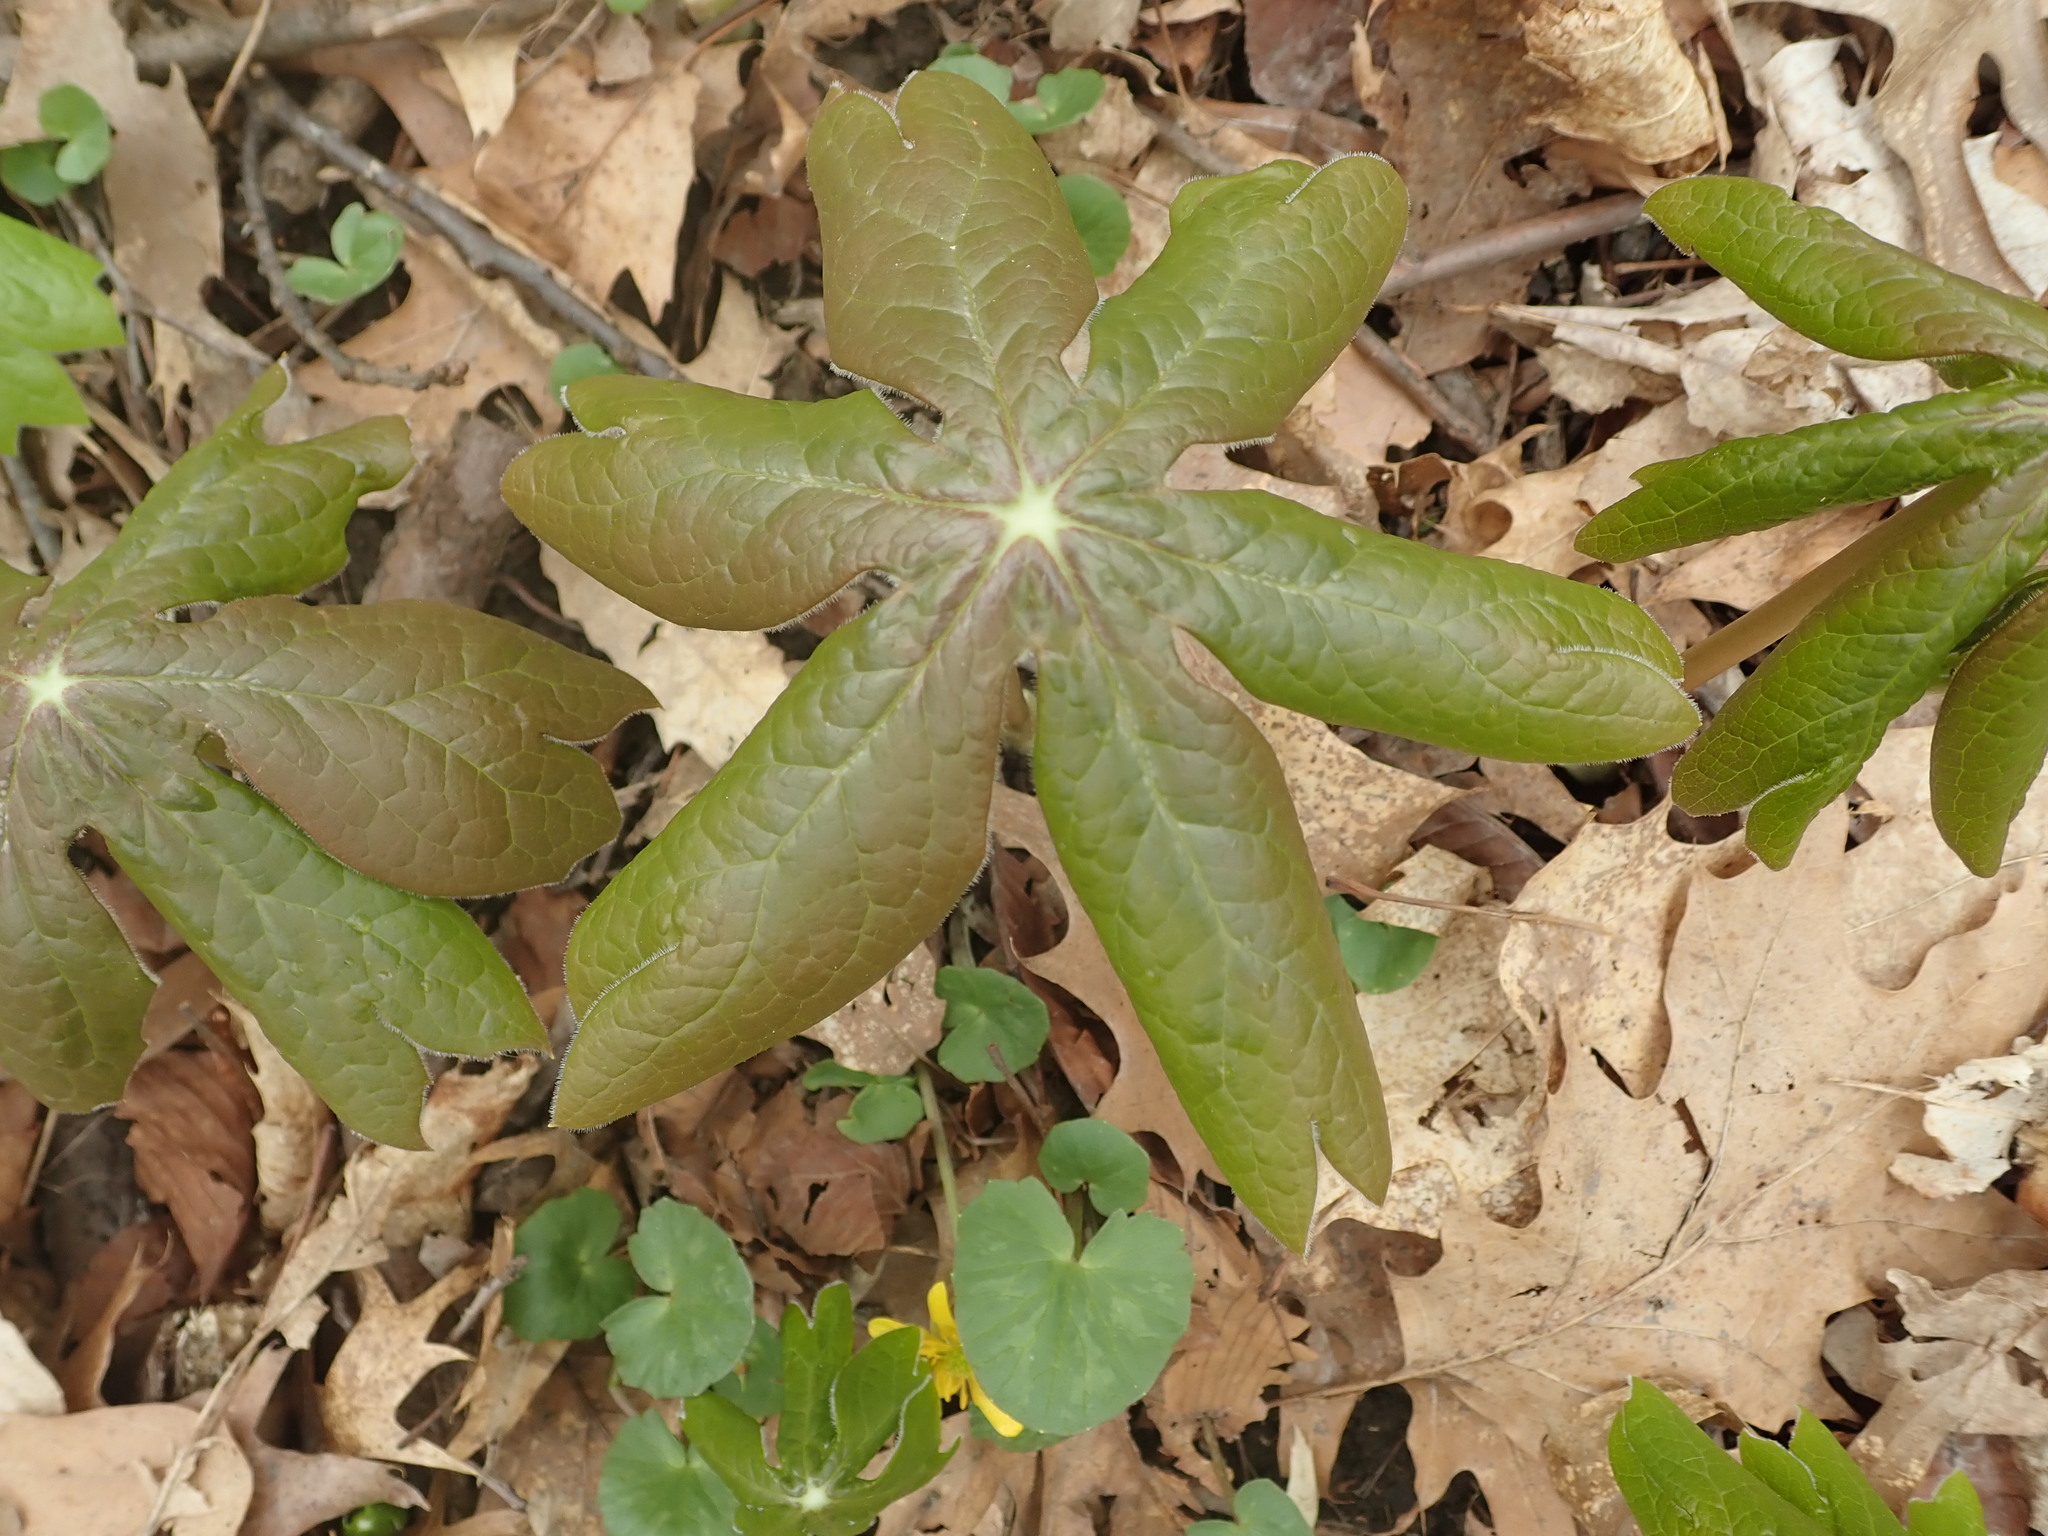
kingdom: Plantae
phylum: Tracheophyta
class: Magnoliopsida
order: Ranunculales
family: Berberidaceae
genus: Podophyllum
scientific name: Podophyllum peltatum
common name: Wild mandrake
